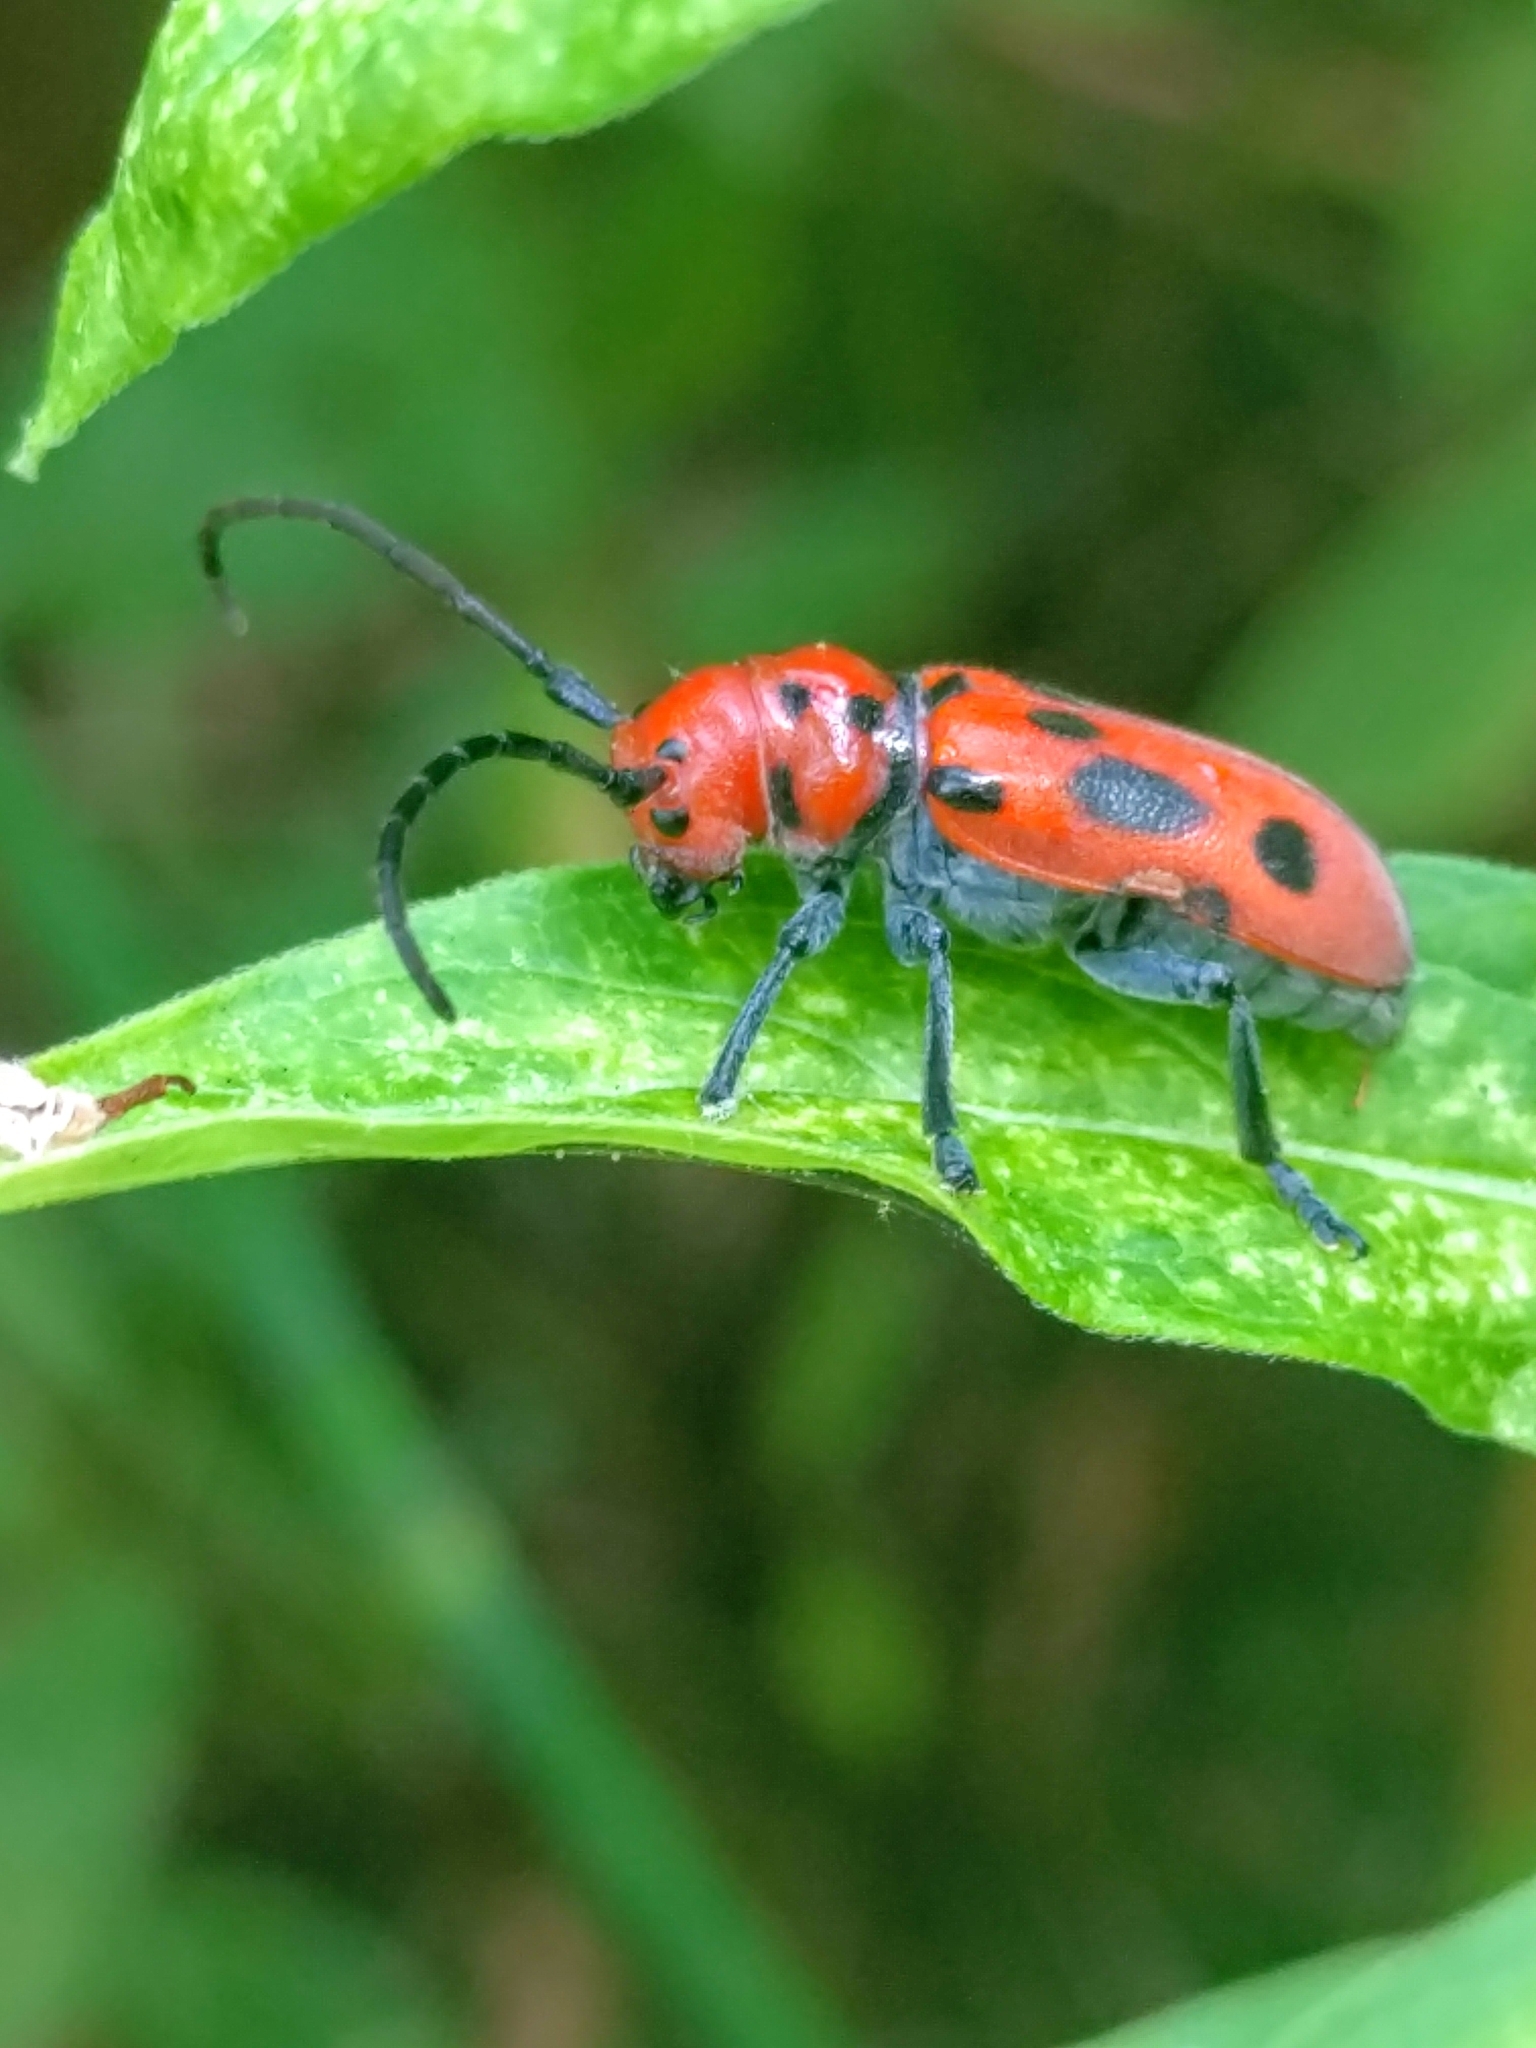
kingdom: Animalia
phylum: Arthropoda
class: Insecta
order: Coleoptera
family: Cerambycidae
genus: Tetraopes
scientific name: Tetraopes tetrophthalmus
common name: Red milkweed beetle
